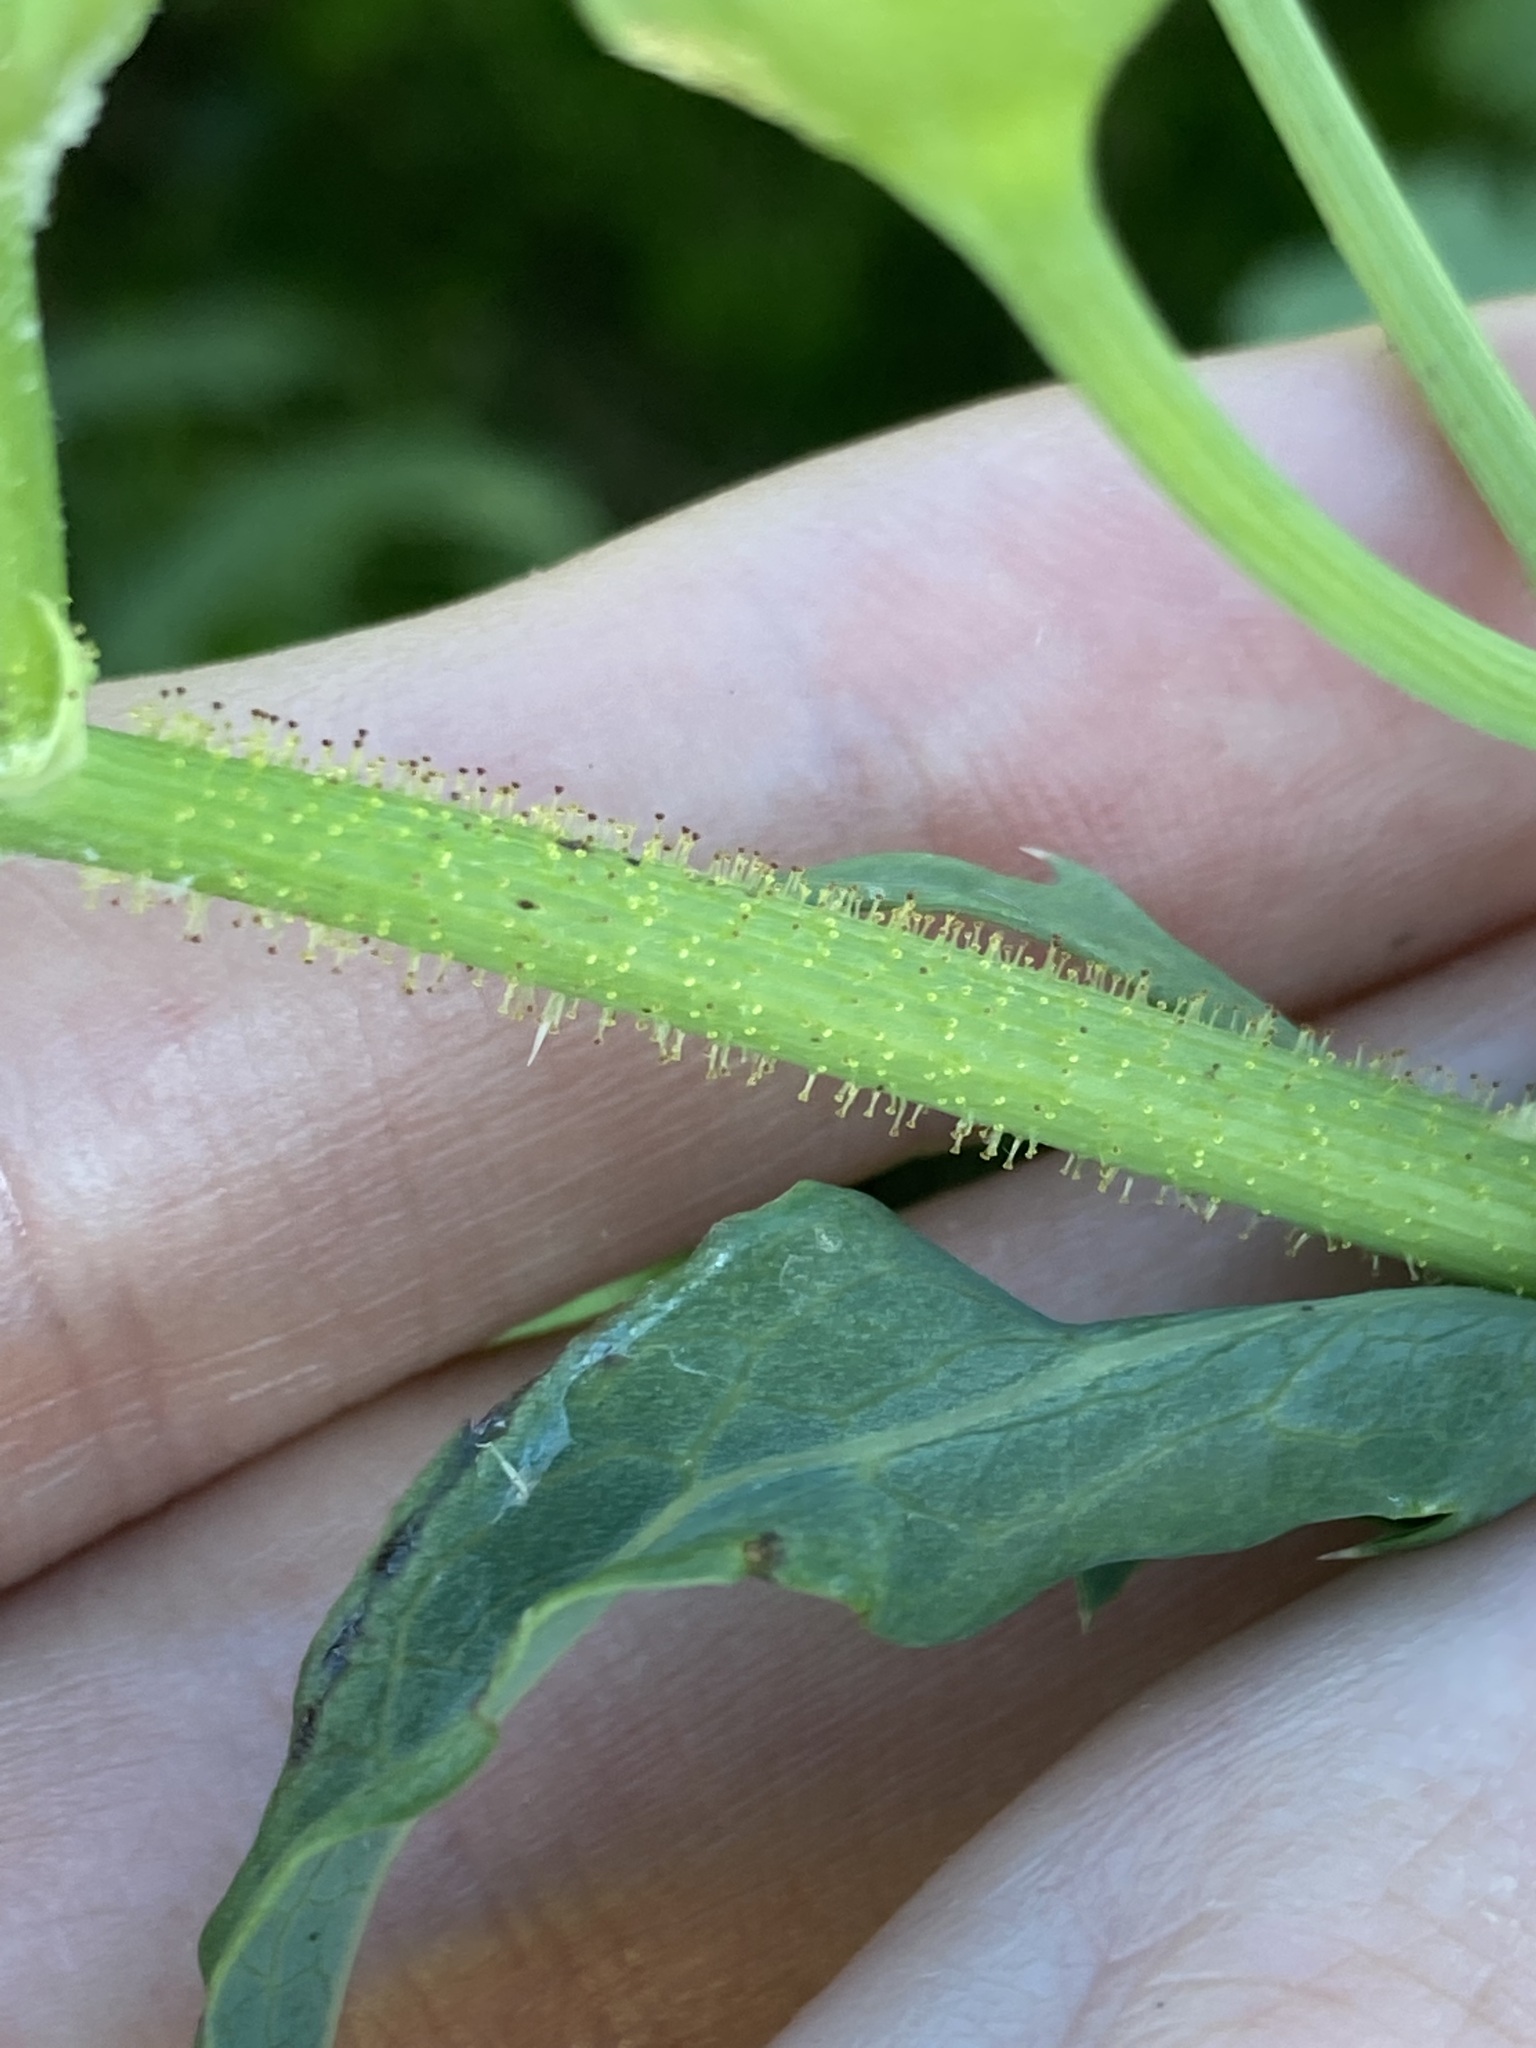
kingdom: Plantae
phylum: Tracheophyta
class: Magnoliopsida
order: Asterales
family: Asteraceae
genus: Sonchus
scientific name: Sonchus oleraceus
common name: Common sowthistle
